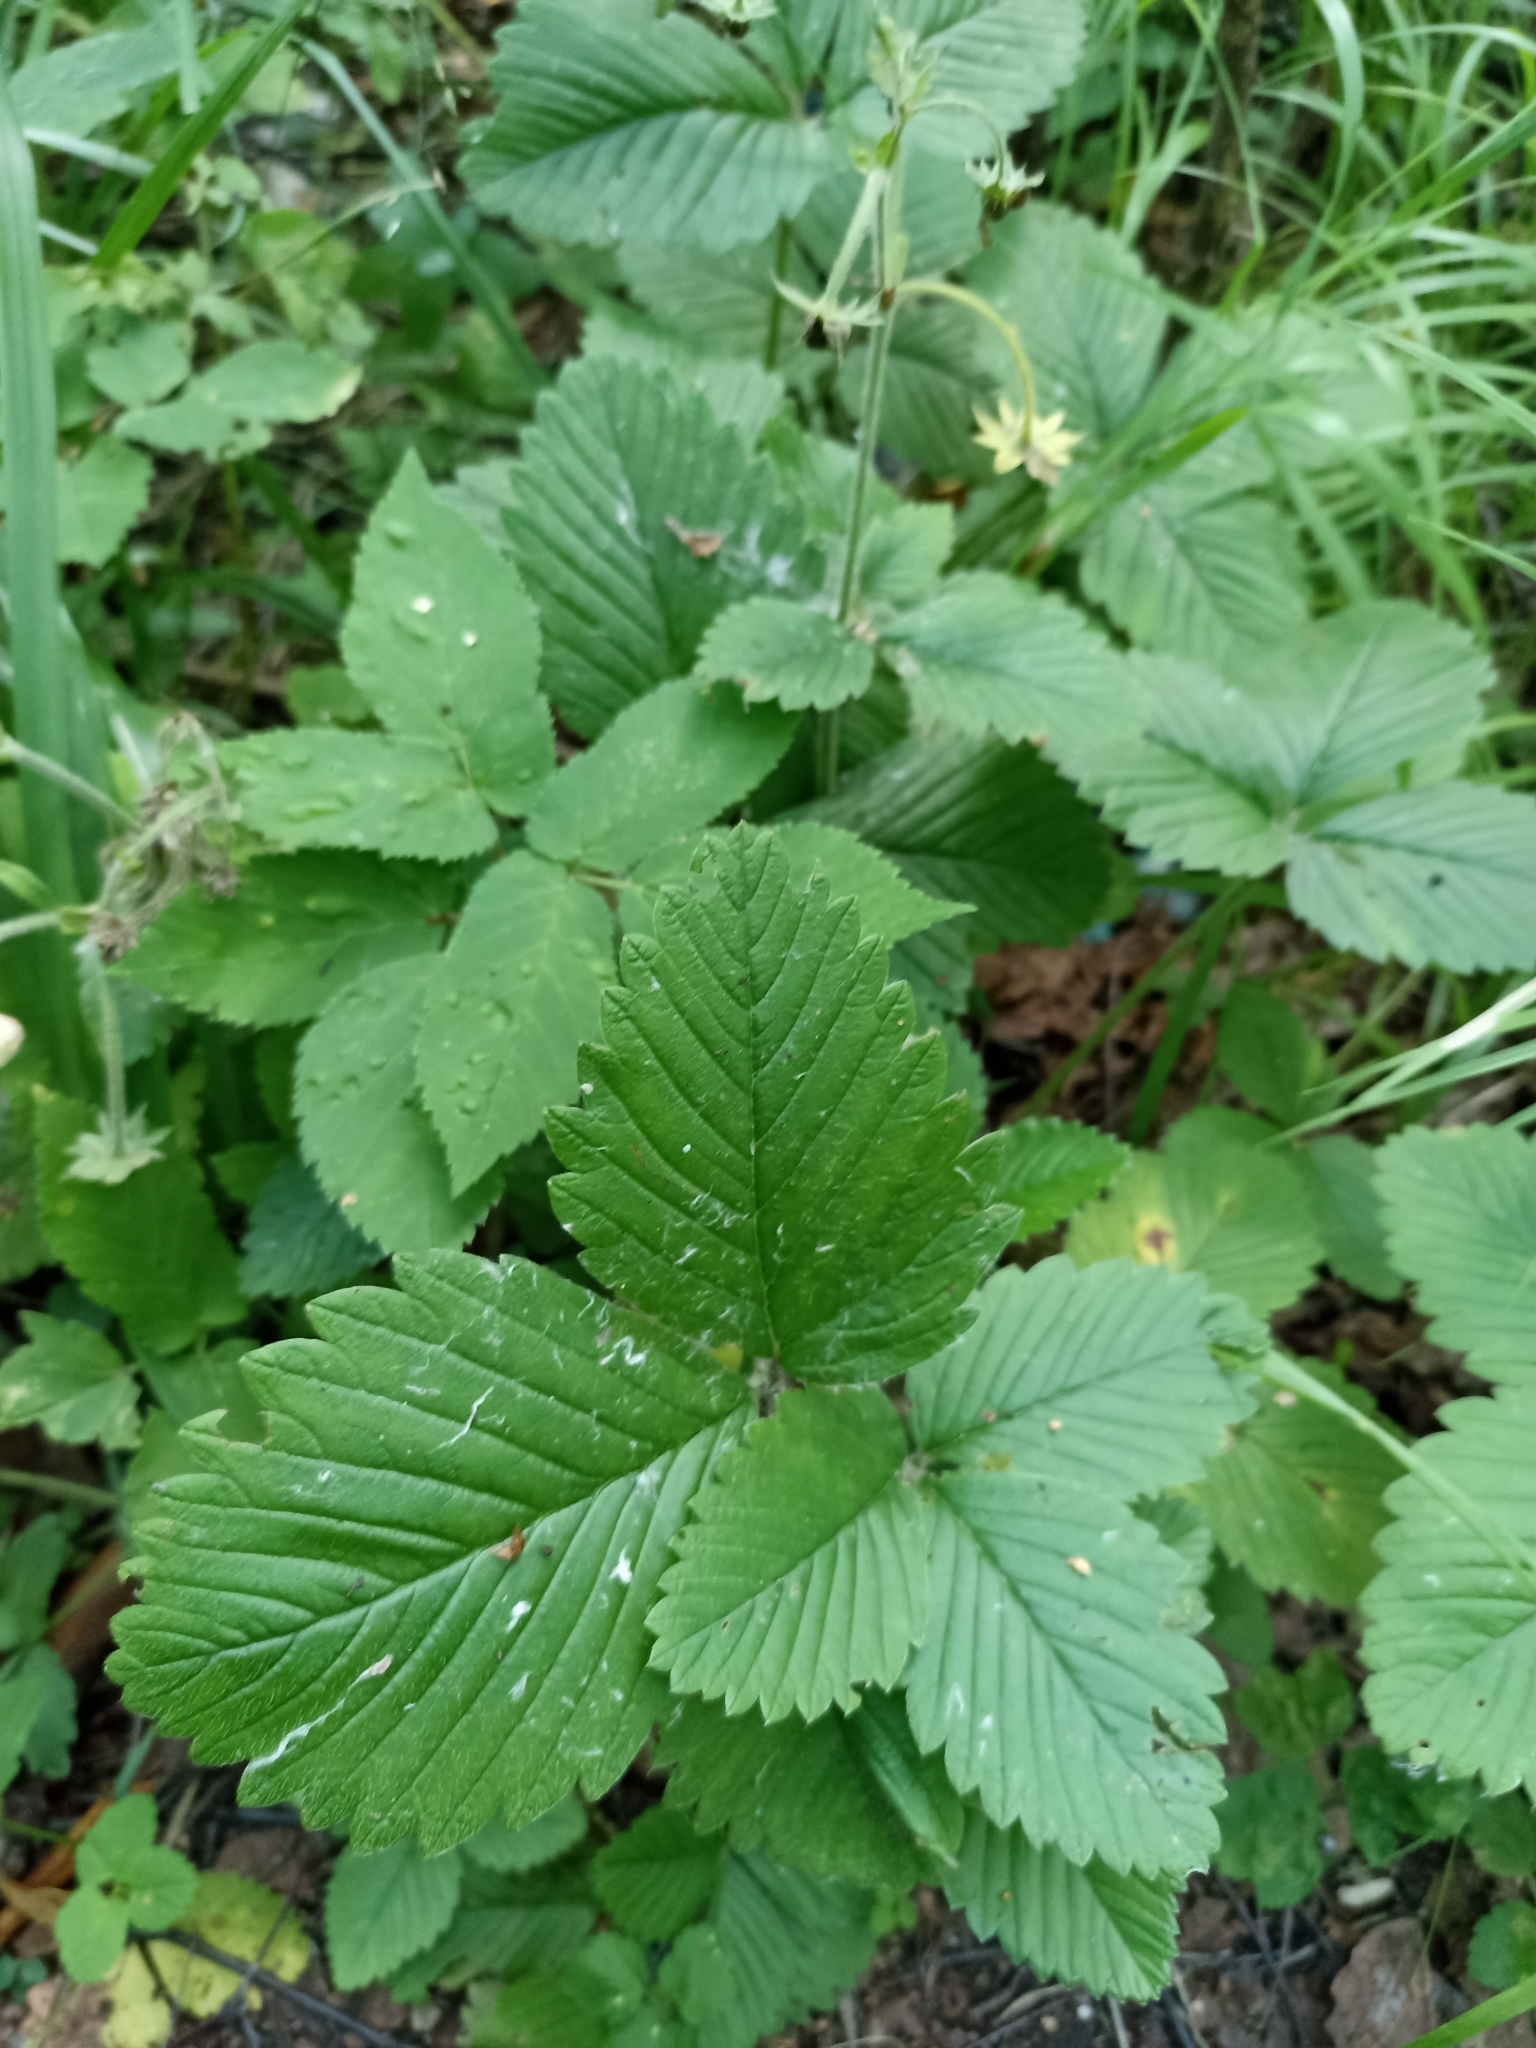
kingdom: Plantae
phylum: Tracheophyta
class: Magnoliopsida
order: Rosales
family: Rosaceae
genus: Fragaria
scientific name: Fragaria moschata
